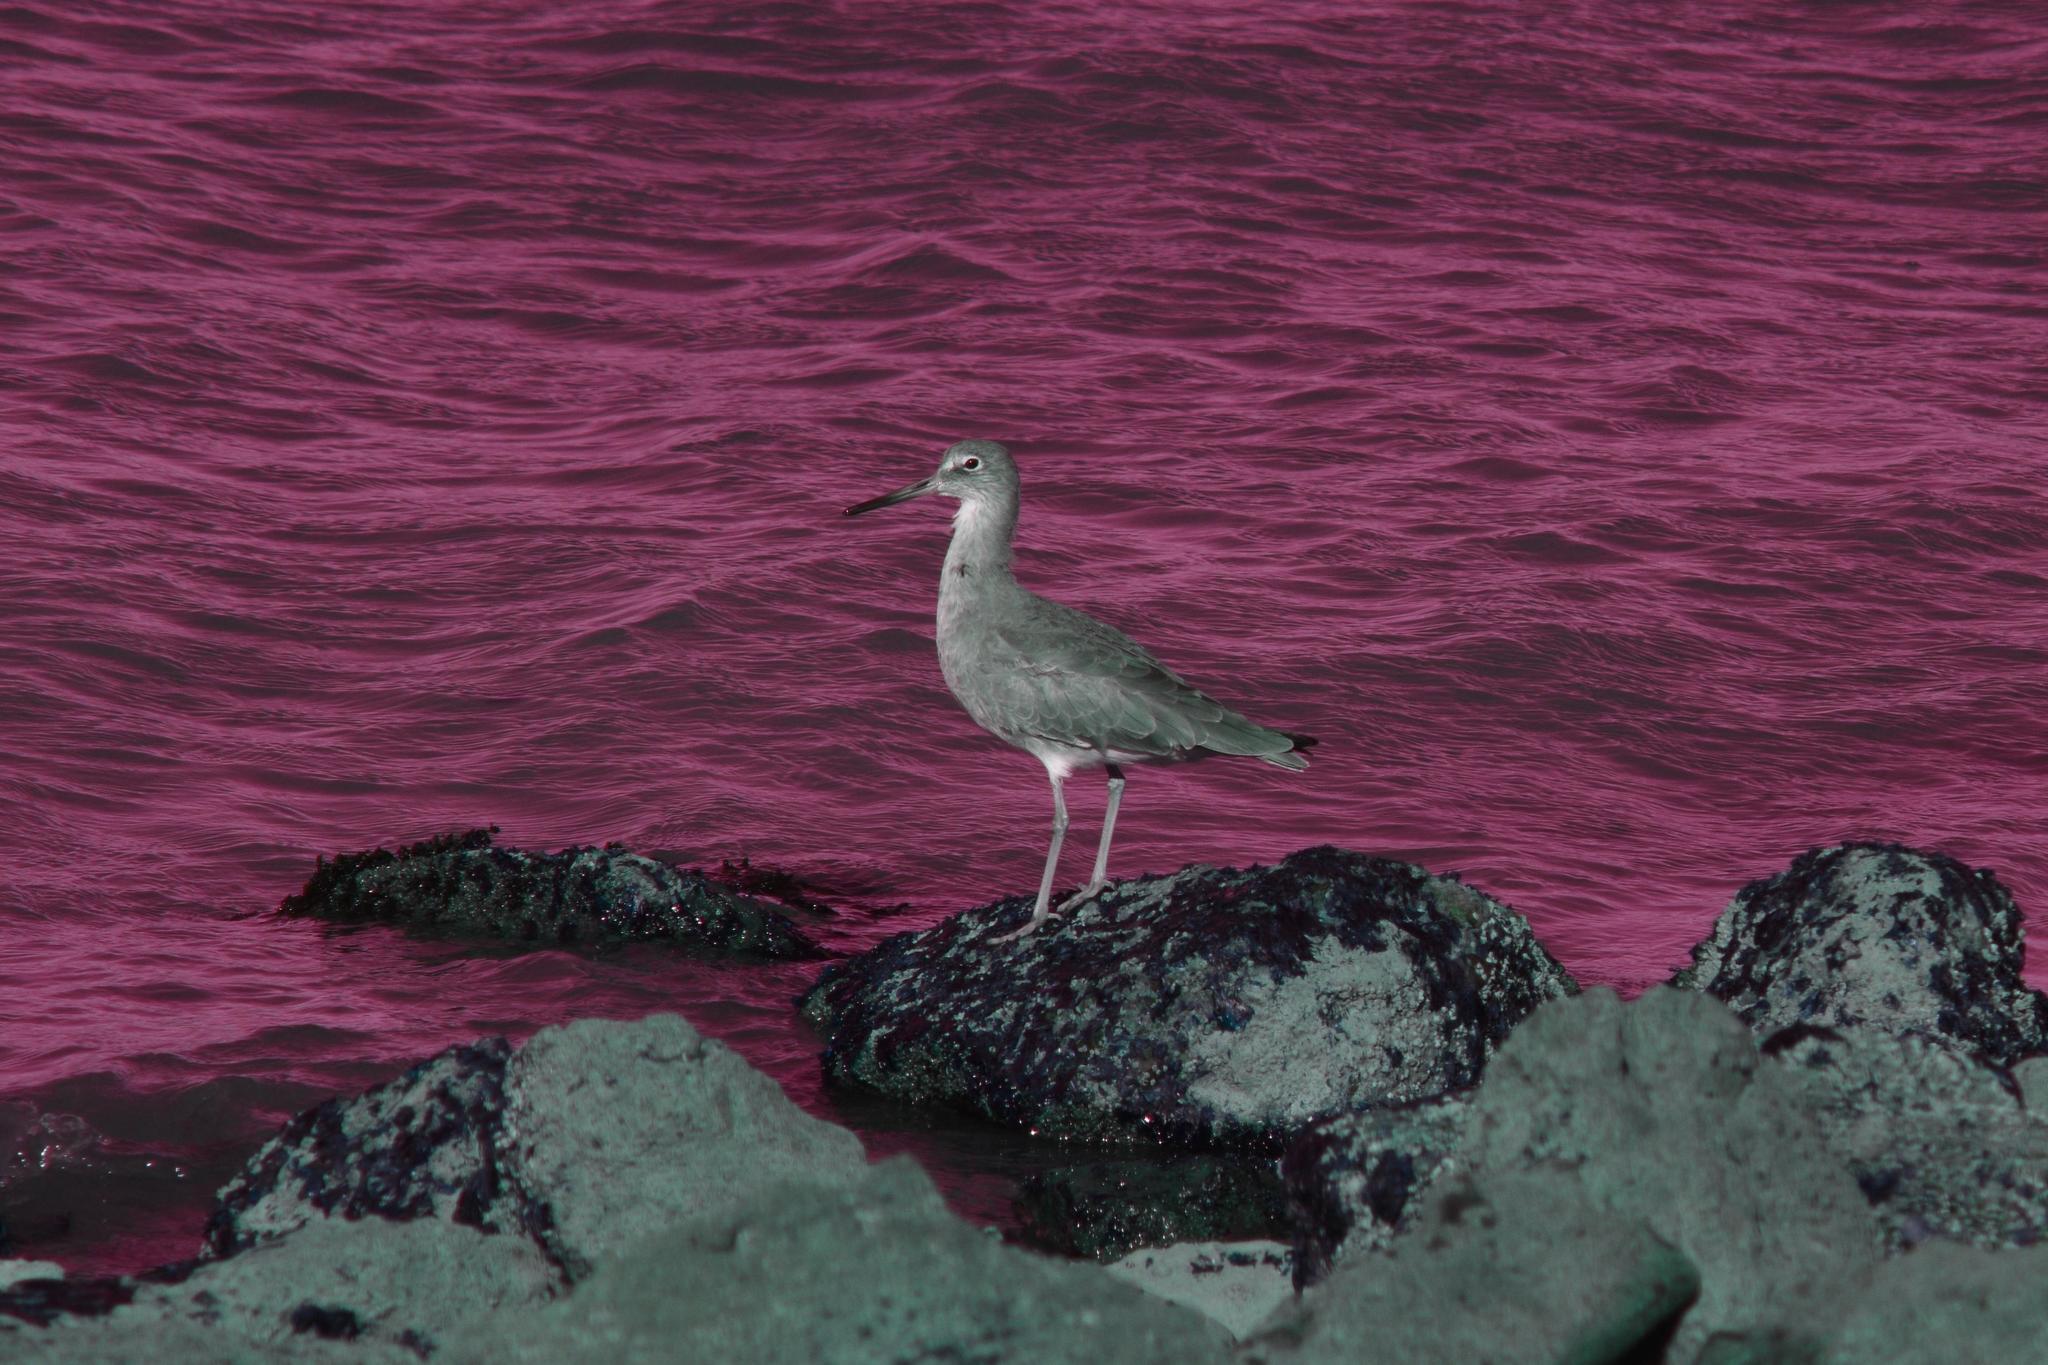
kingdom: Animalia
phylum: Chordata
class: Aves
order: Charadriiformes
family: Scolopacidae
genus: Tringa
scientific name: Tringa semipalmata
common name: Willet
